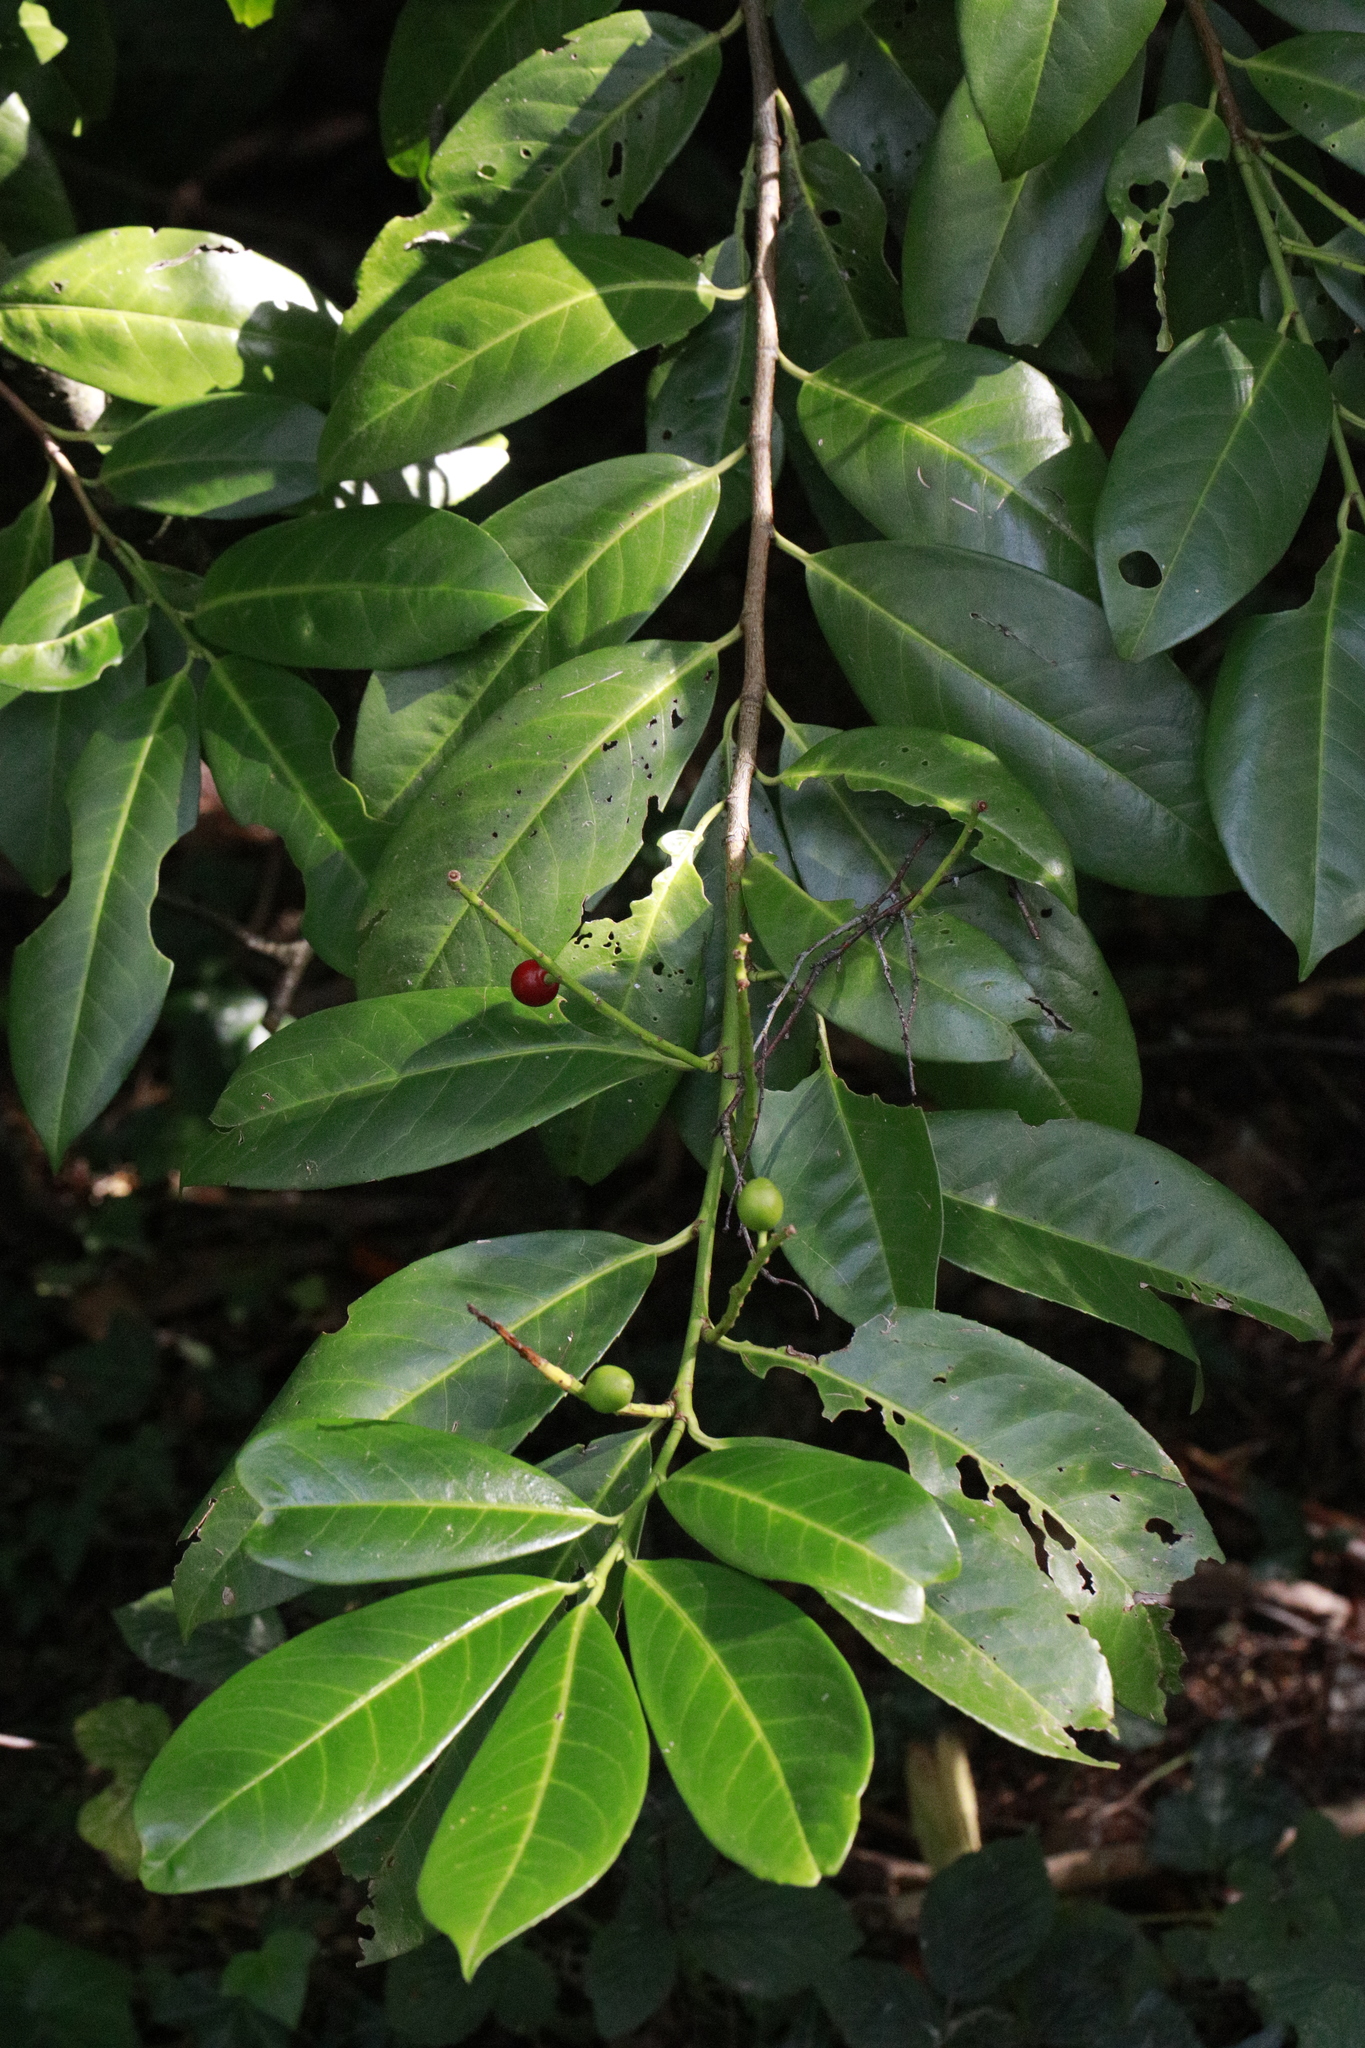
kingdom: Plantae
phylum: Tracheophyta
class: Magnoliopsida
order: Rosales
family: Rosaceae
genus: Prunus
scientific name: Prunus laurocerasus
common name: Cherry laurel
